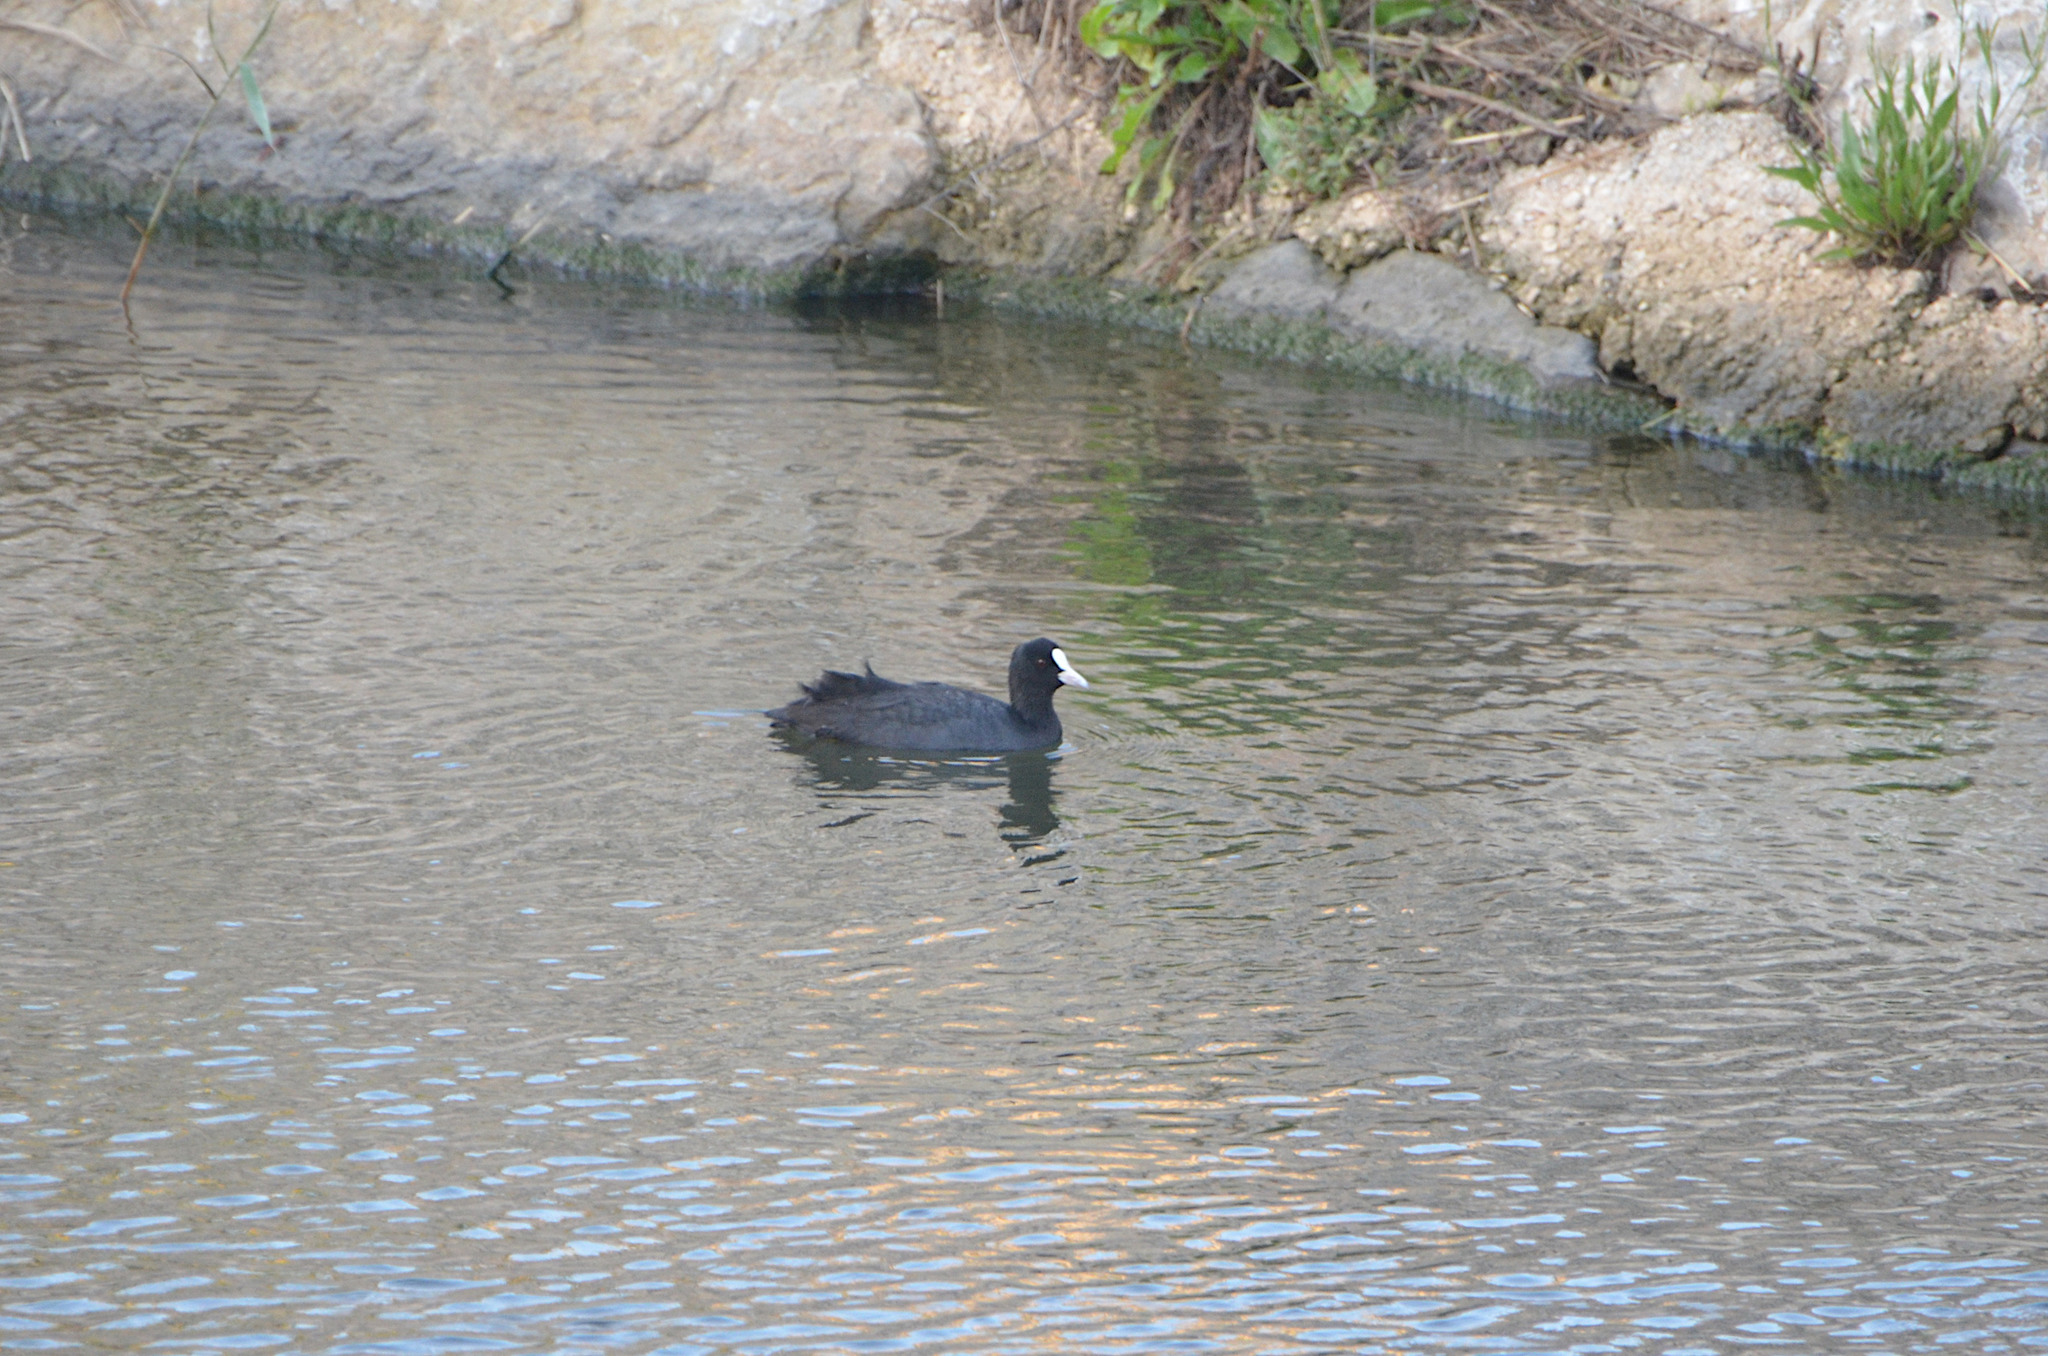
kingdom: Animalia
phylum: Chordata
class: Aves
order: Gruiformes
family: Rallidae
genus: Fulica
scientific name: Fulica atra
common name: Eurasian coot
